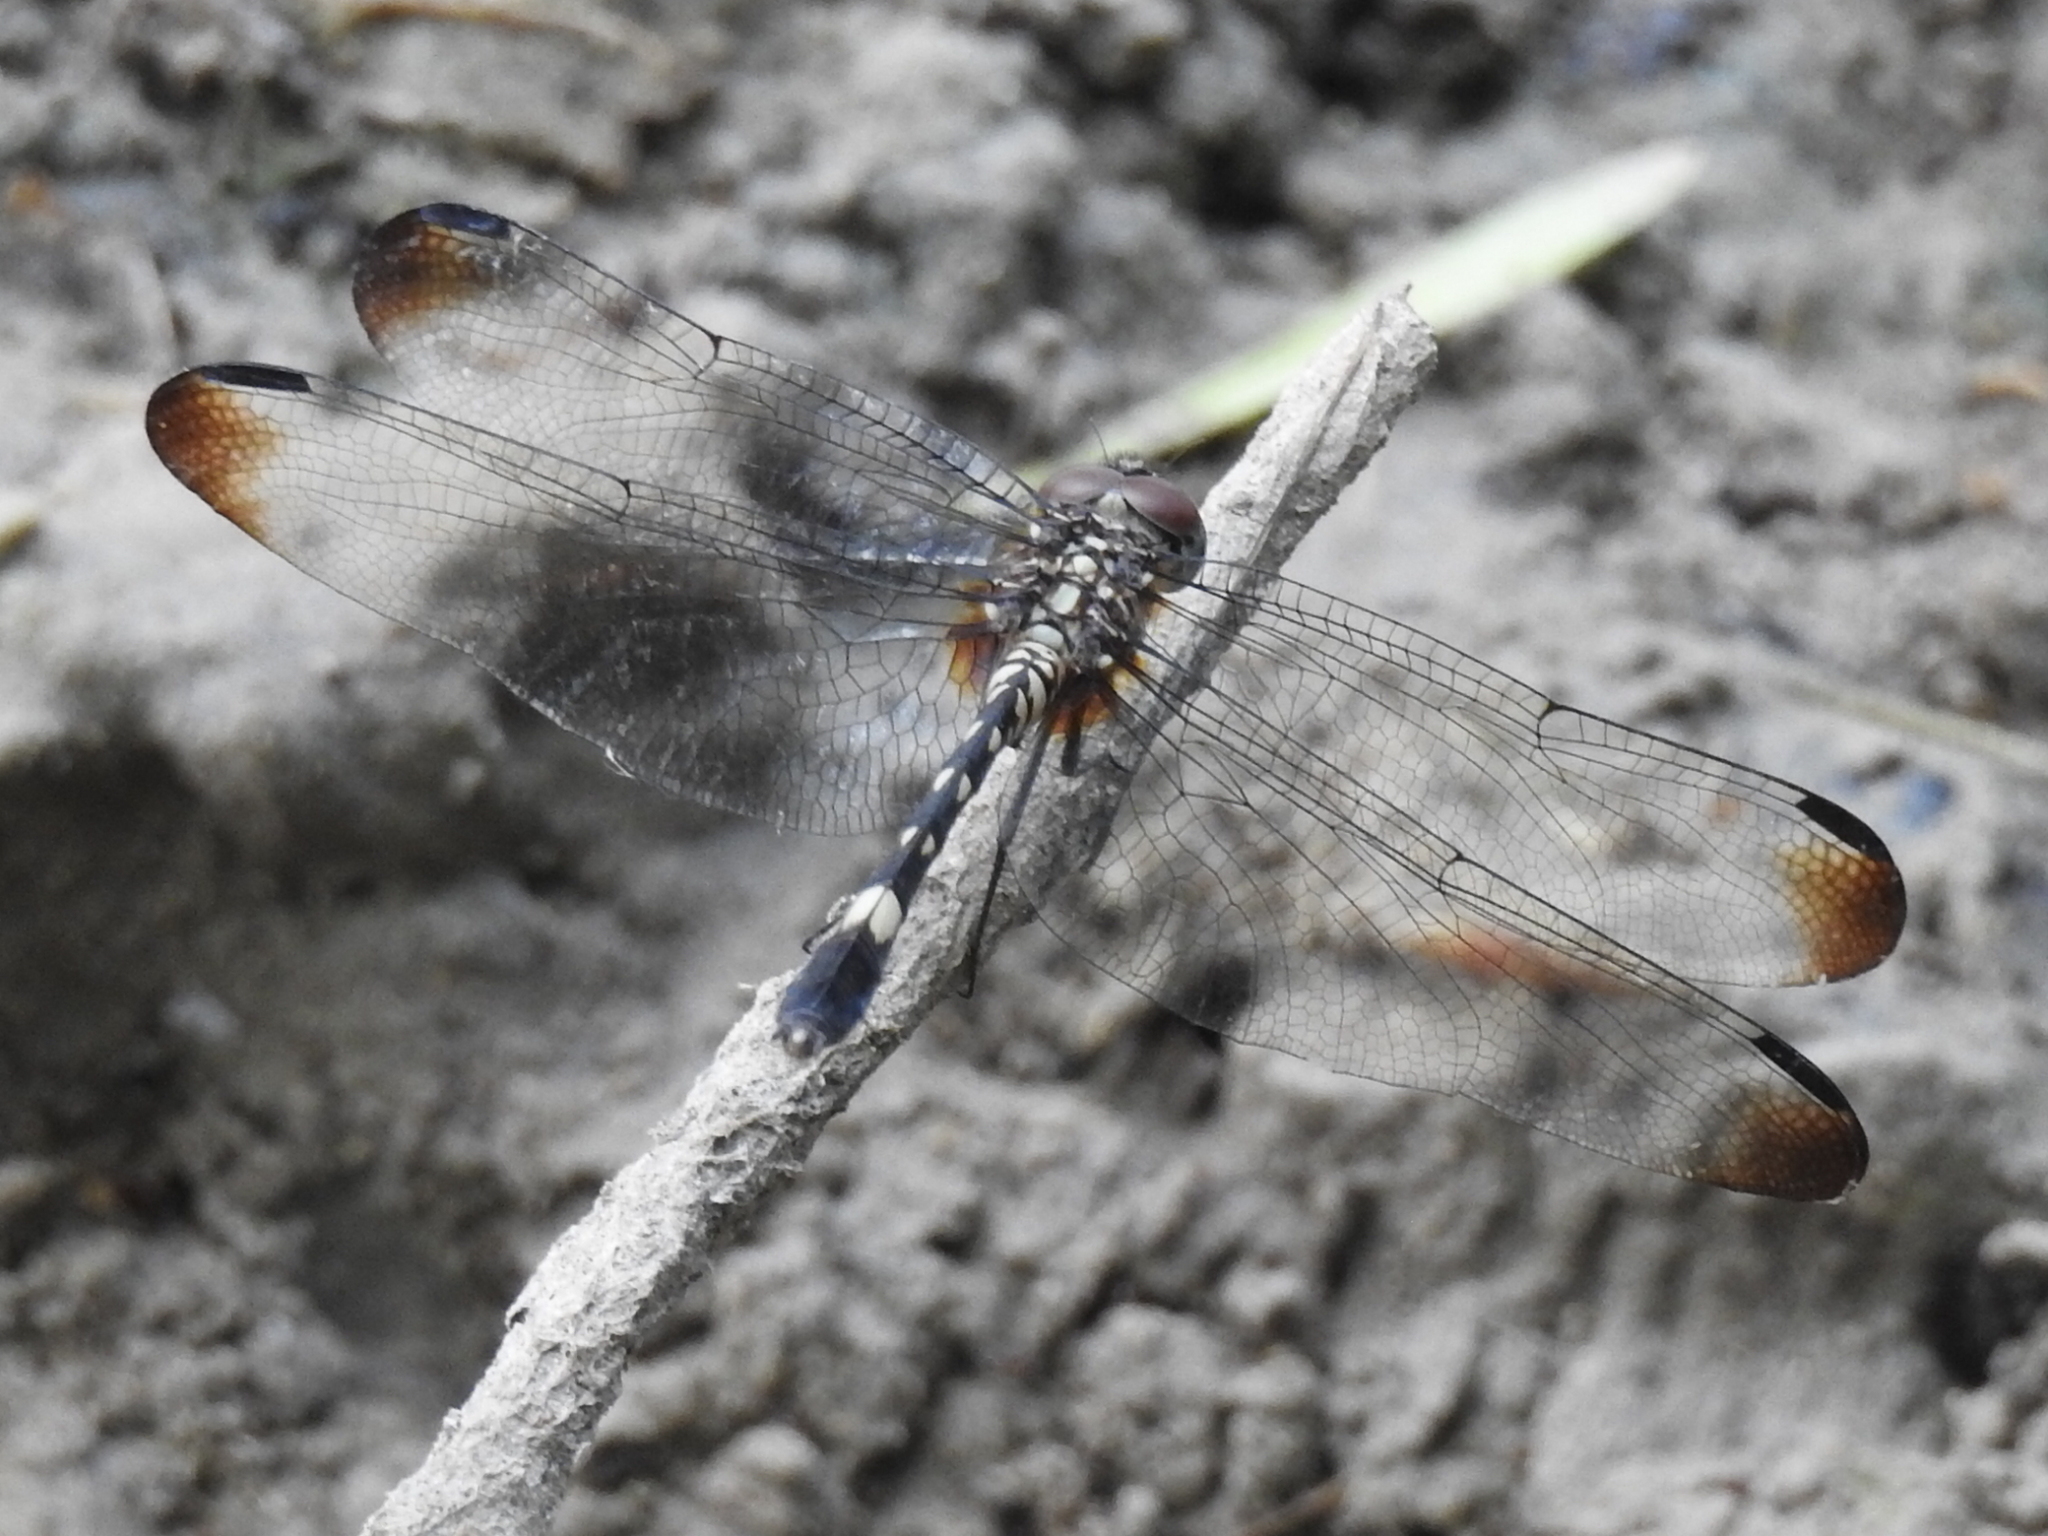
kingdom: Animalia
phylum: Arthropoda
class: Insecta
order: Odonata
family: Libellulidae
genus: Dythemis
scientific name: Dythemis velox
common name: Swift setwing
